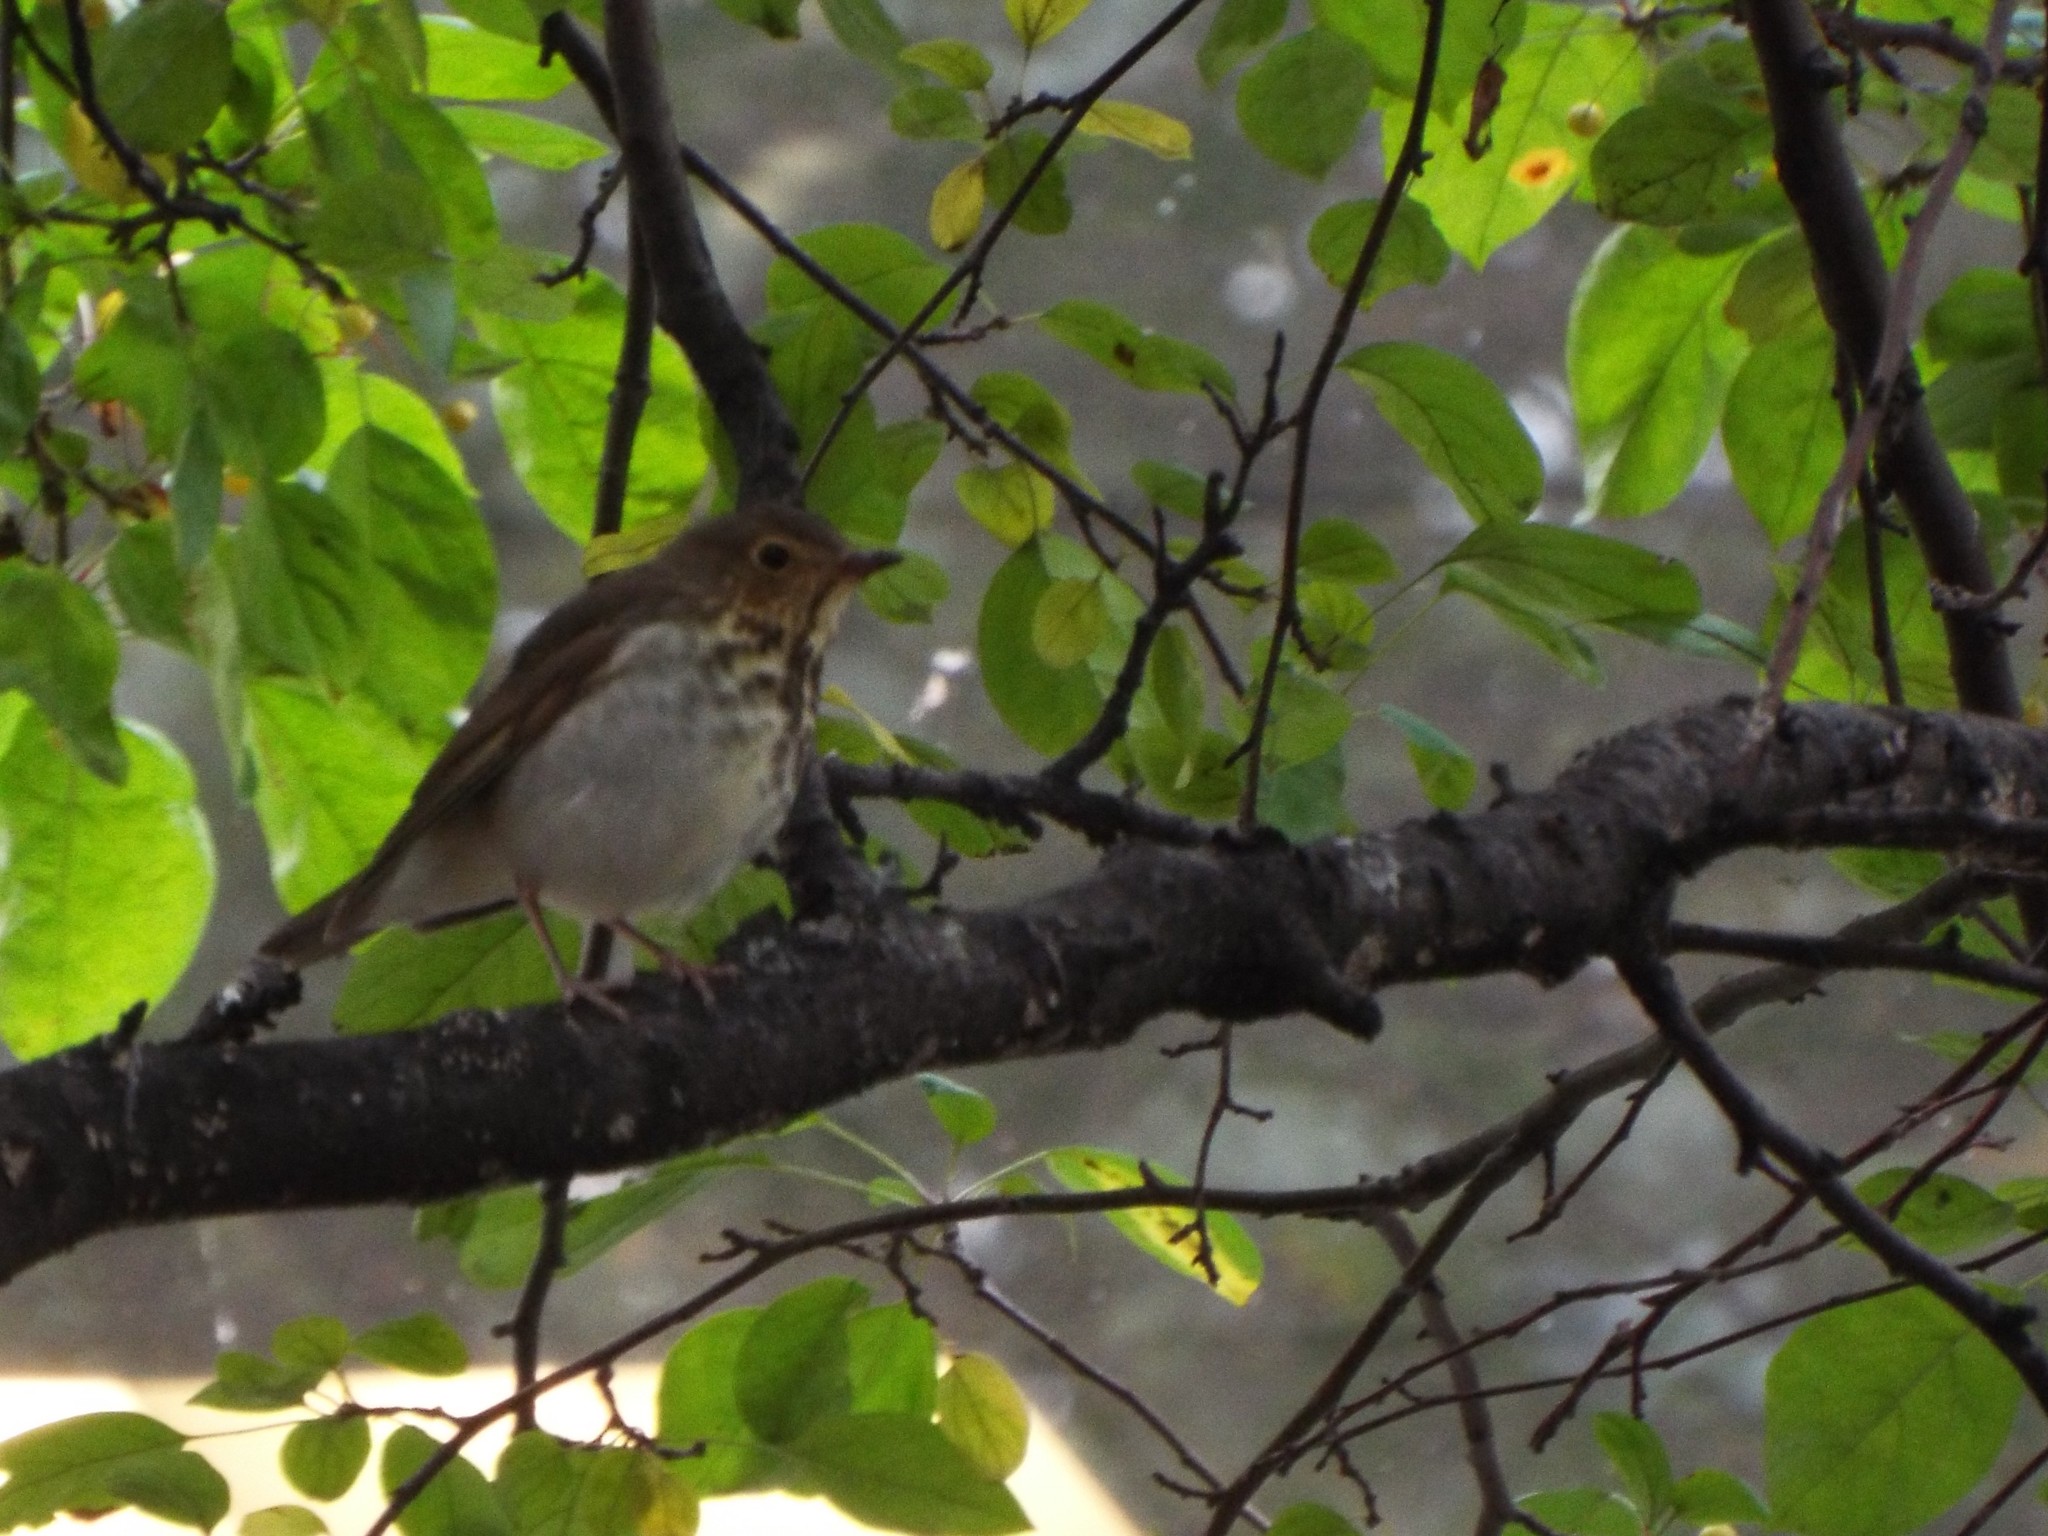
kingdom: Animalia
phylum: Chordata
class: Aves
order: Passeriformes
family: Turdidae
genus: Catharus
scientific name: Catharus ustulatus
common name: Swainson's thrush
